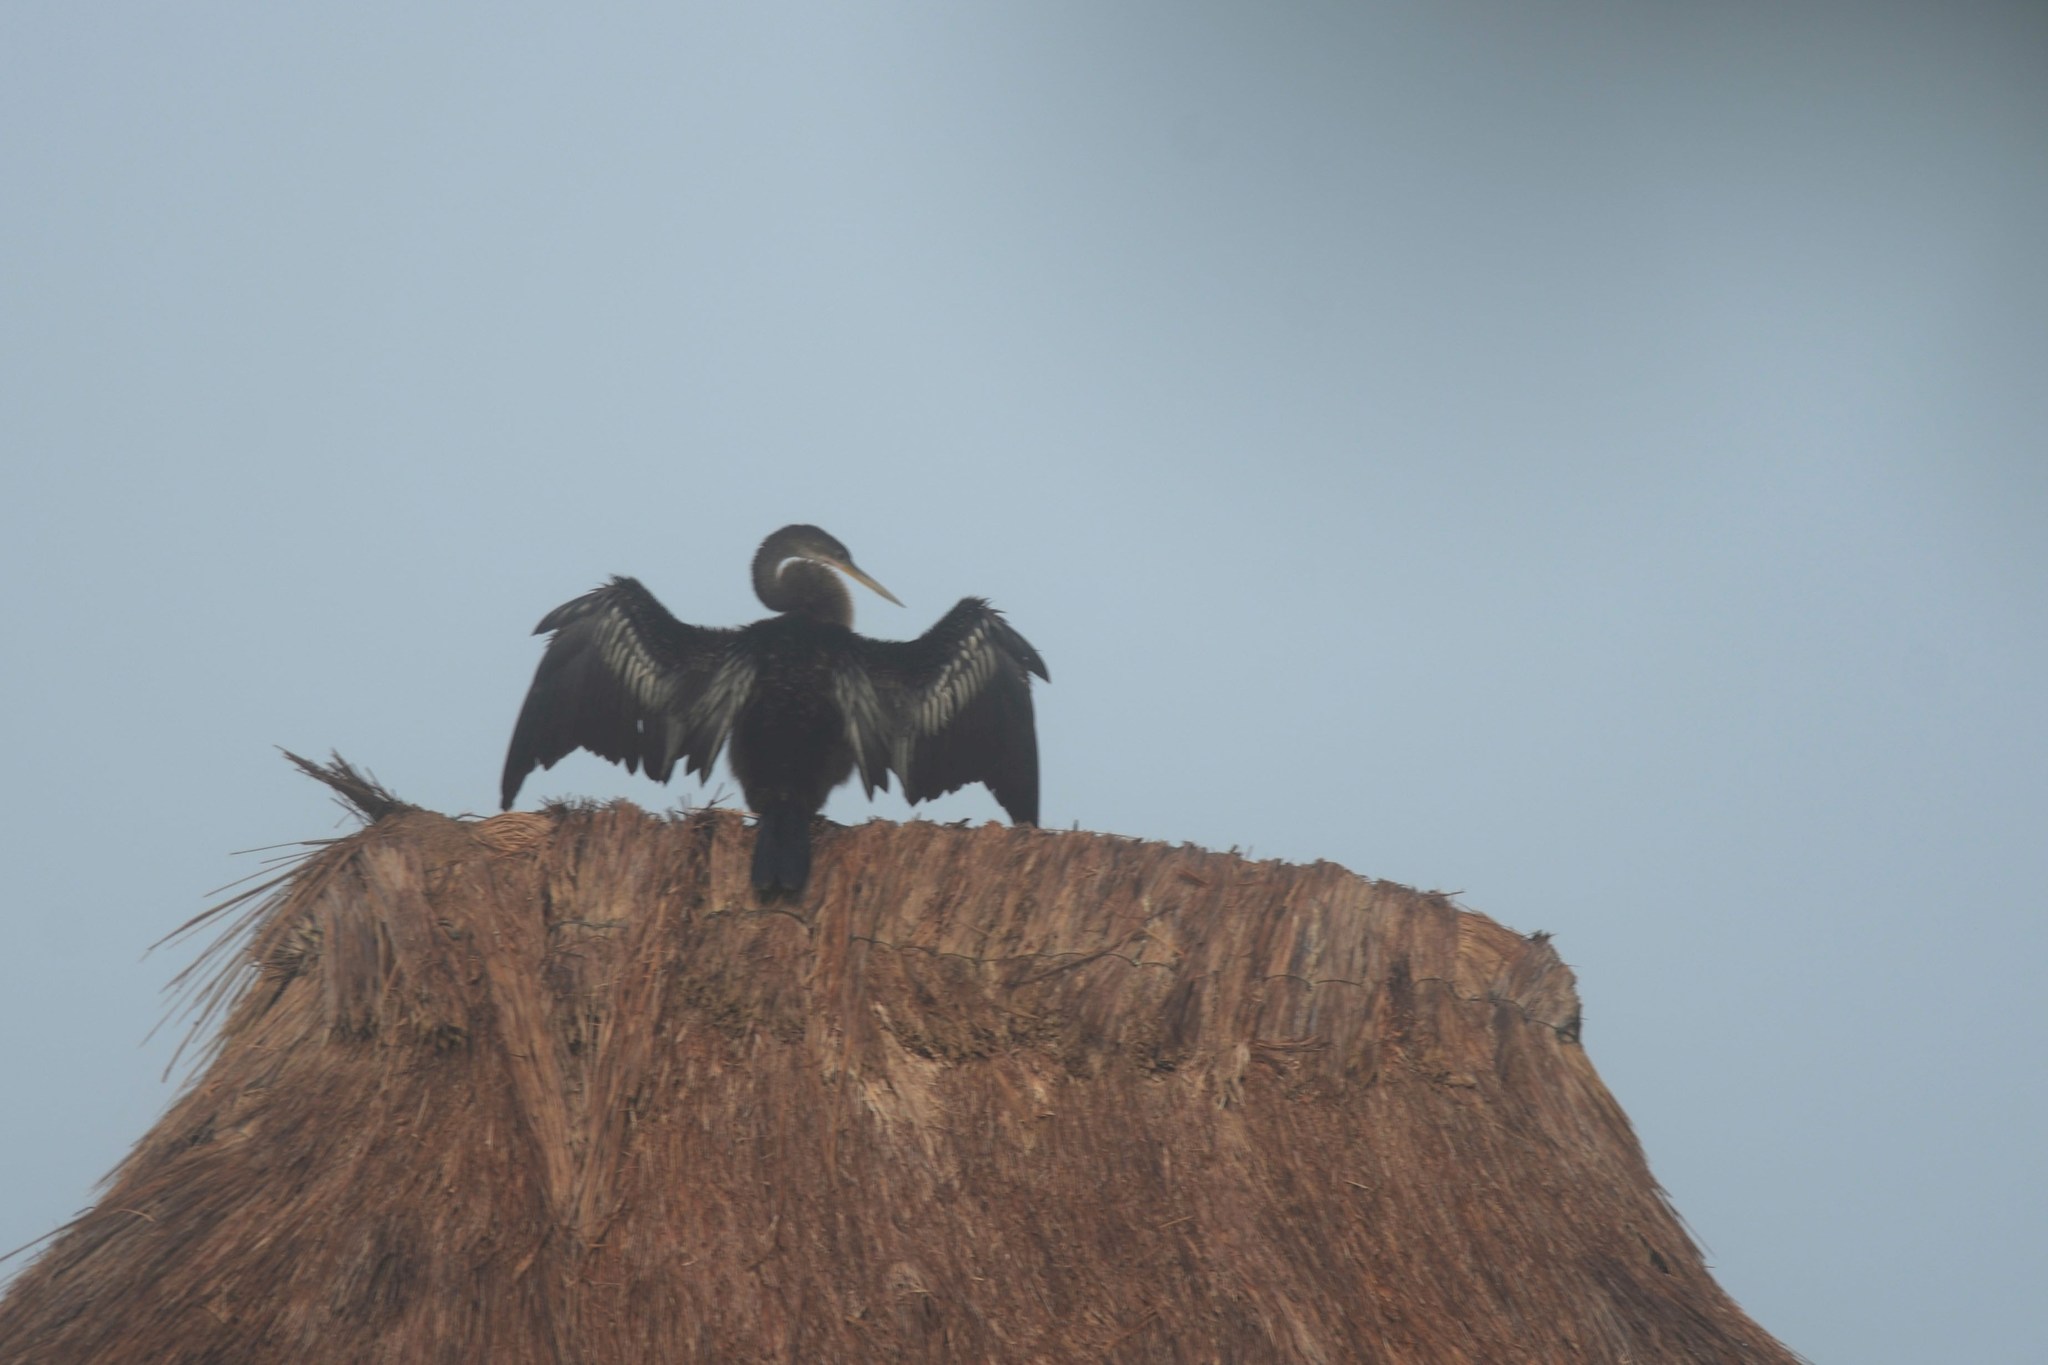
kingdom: Animalia
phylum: Chordata
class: Aves
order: Suliformes
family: Anhingidae
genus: Anhinga
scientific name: Anhinga anhinga
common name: Anhinga
